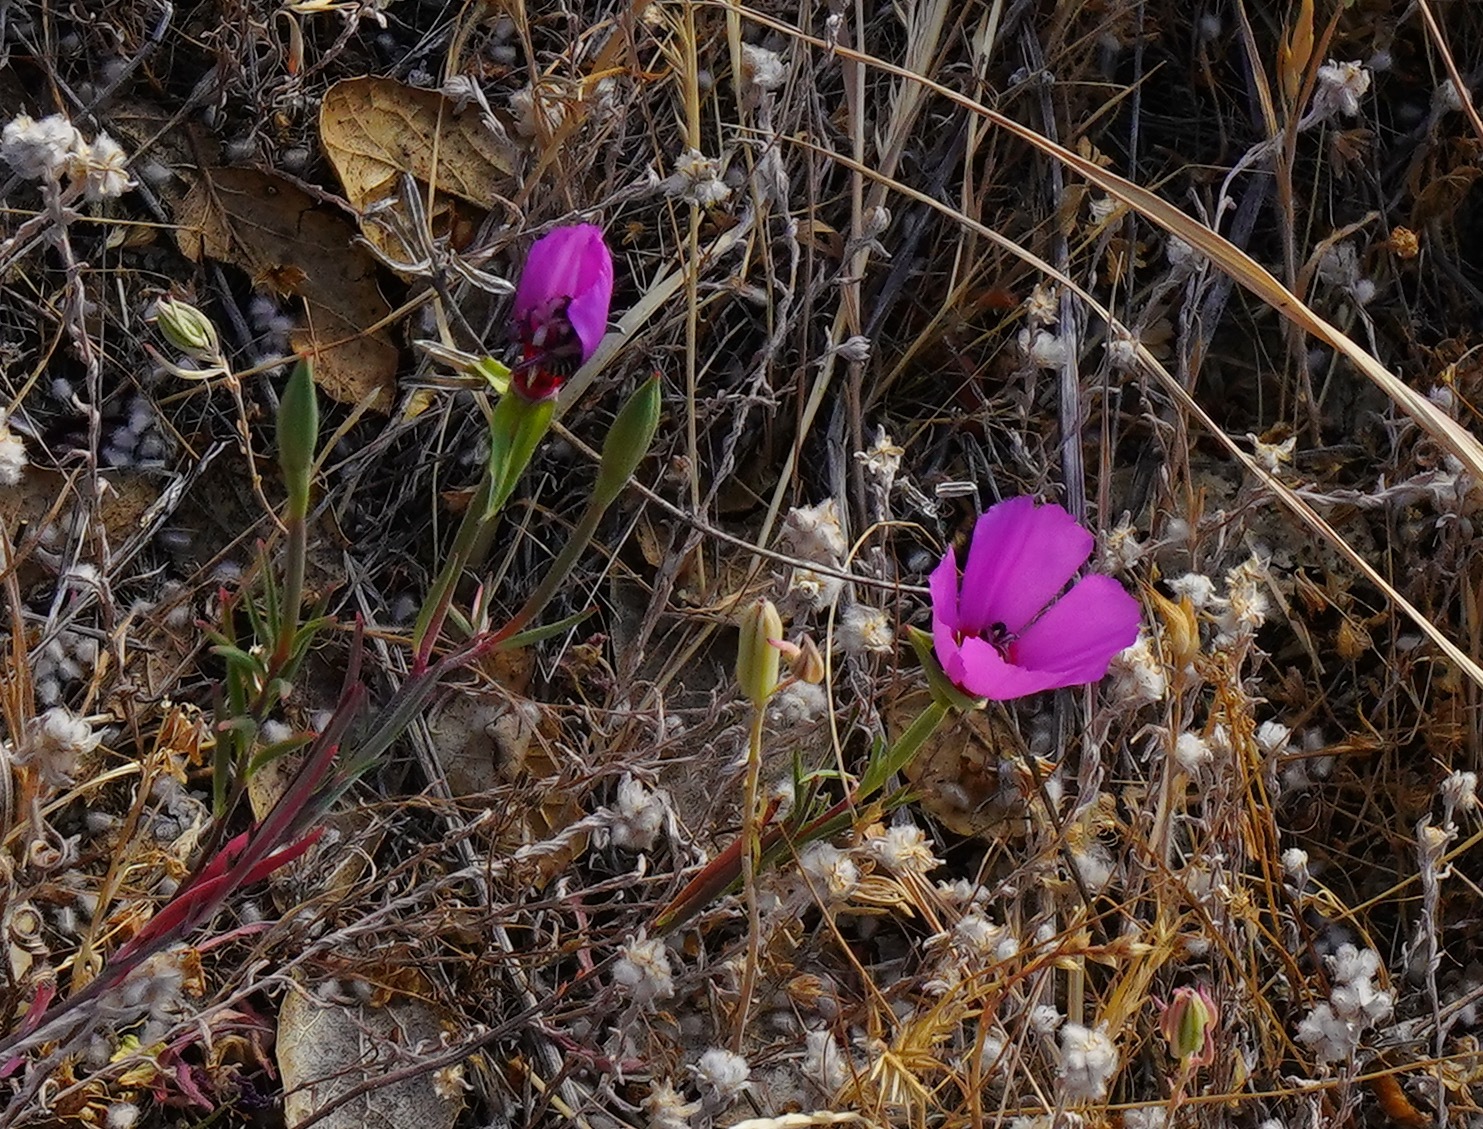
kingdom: Plantae
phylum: Tracheophyta
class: Magnoliopsida
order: Myrtales
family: Onagraceae
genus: Clarkia
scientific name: Clarkia rubicunda
